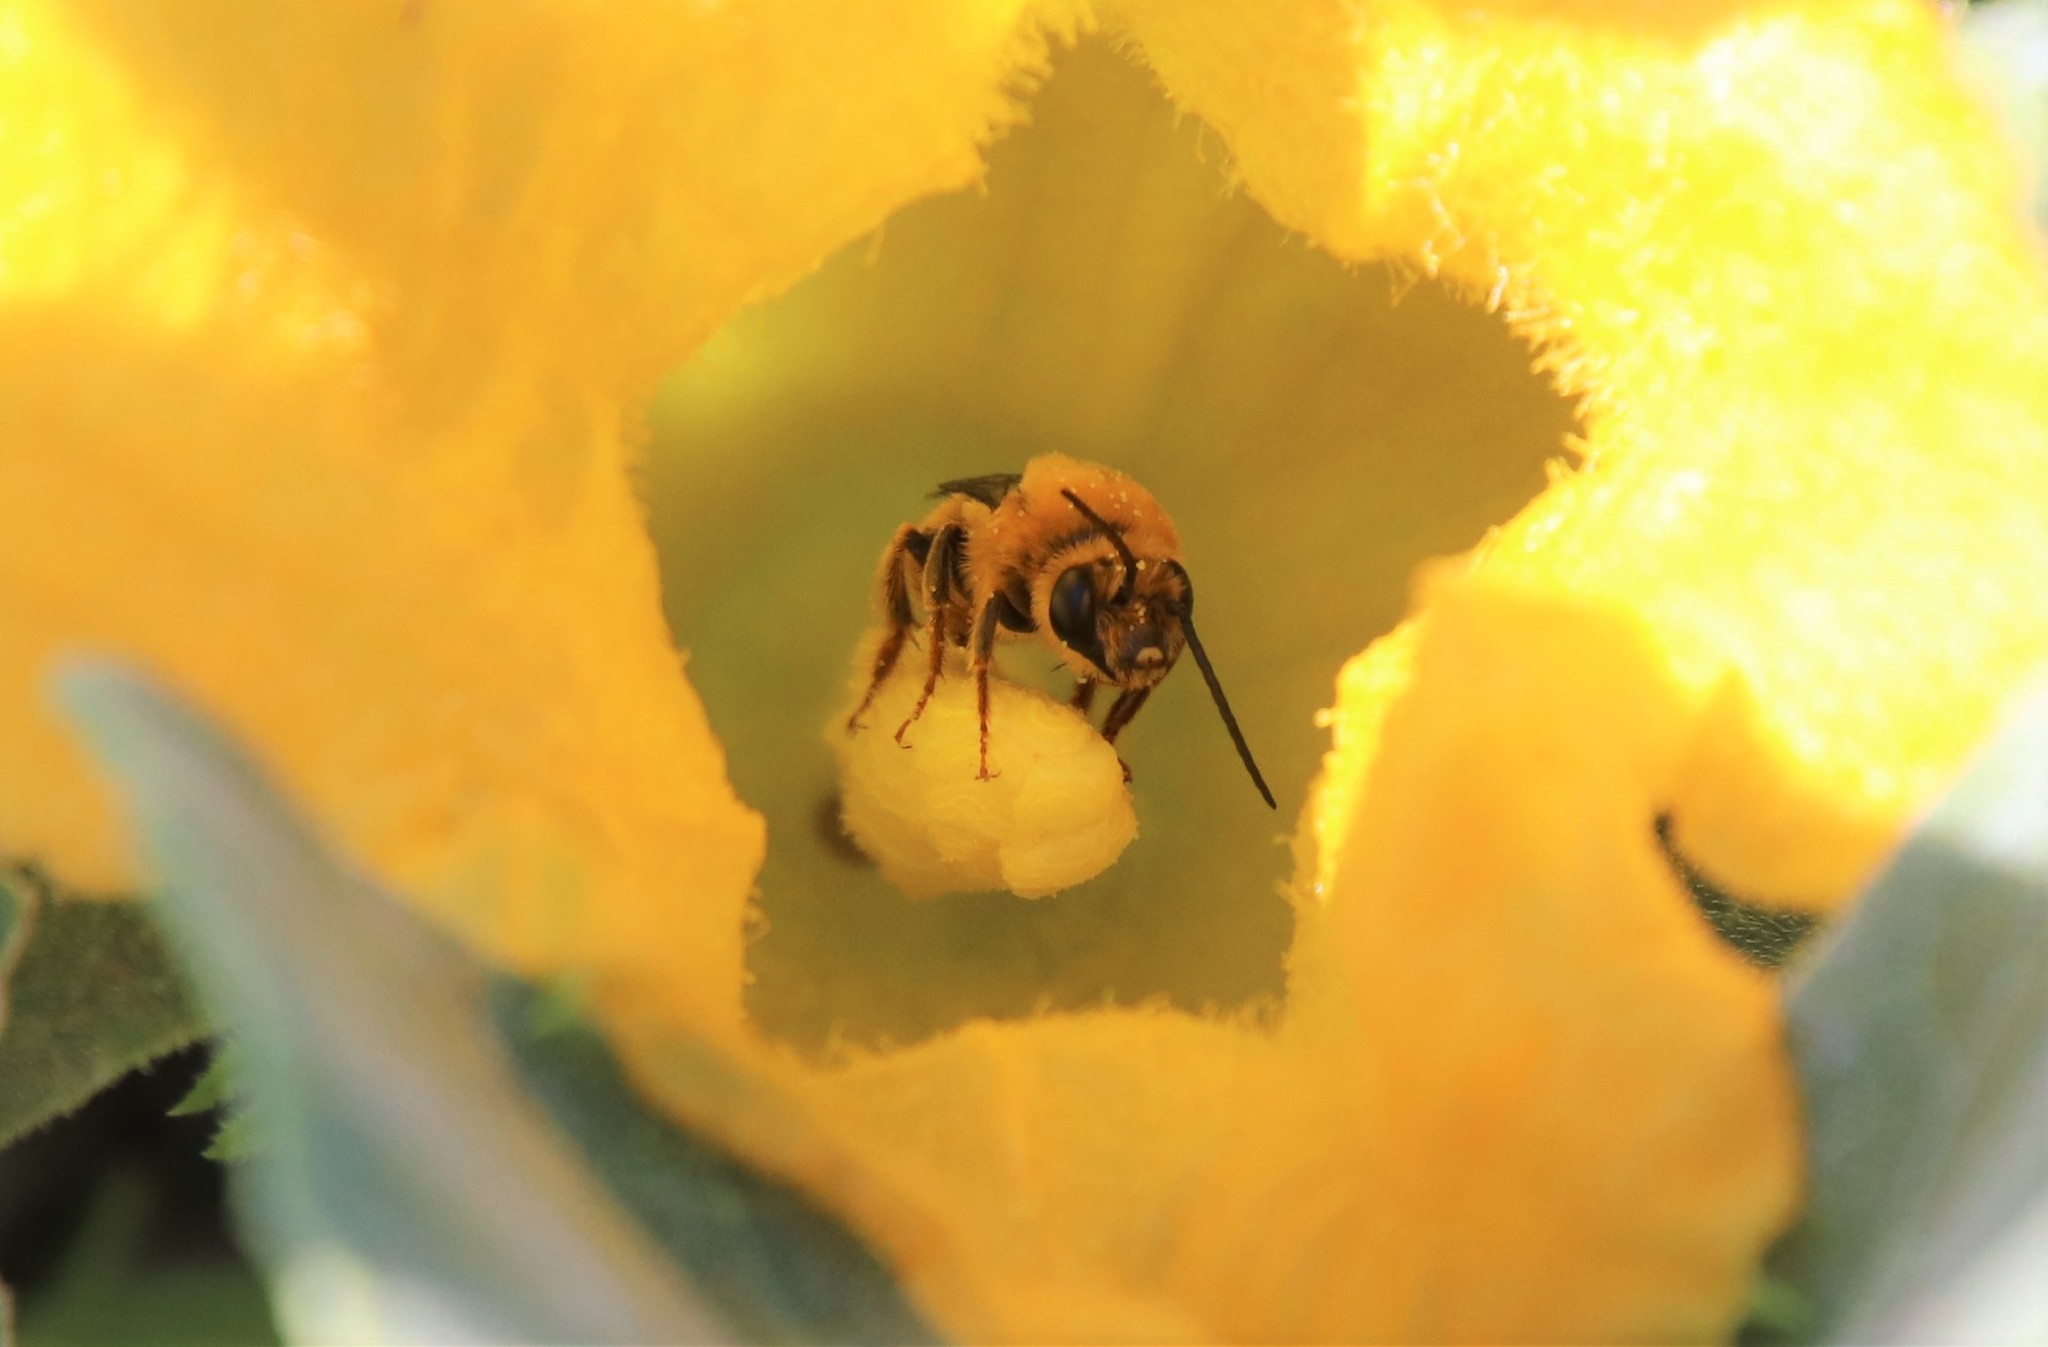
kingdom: Animalia
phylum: Arthropoda
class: Insecta
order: Hymenoptera
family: Apidae
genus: Peponapis
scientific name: Peponapis pruinosa
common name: Pruinose squash bee
